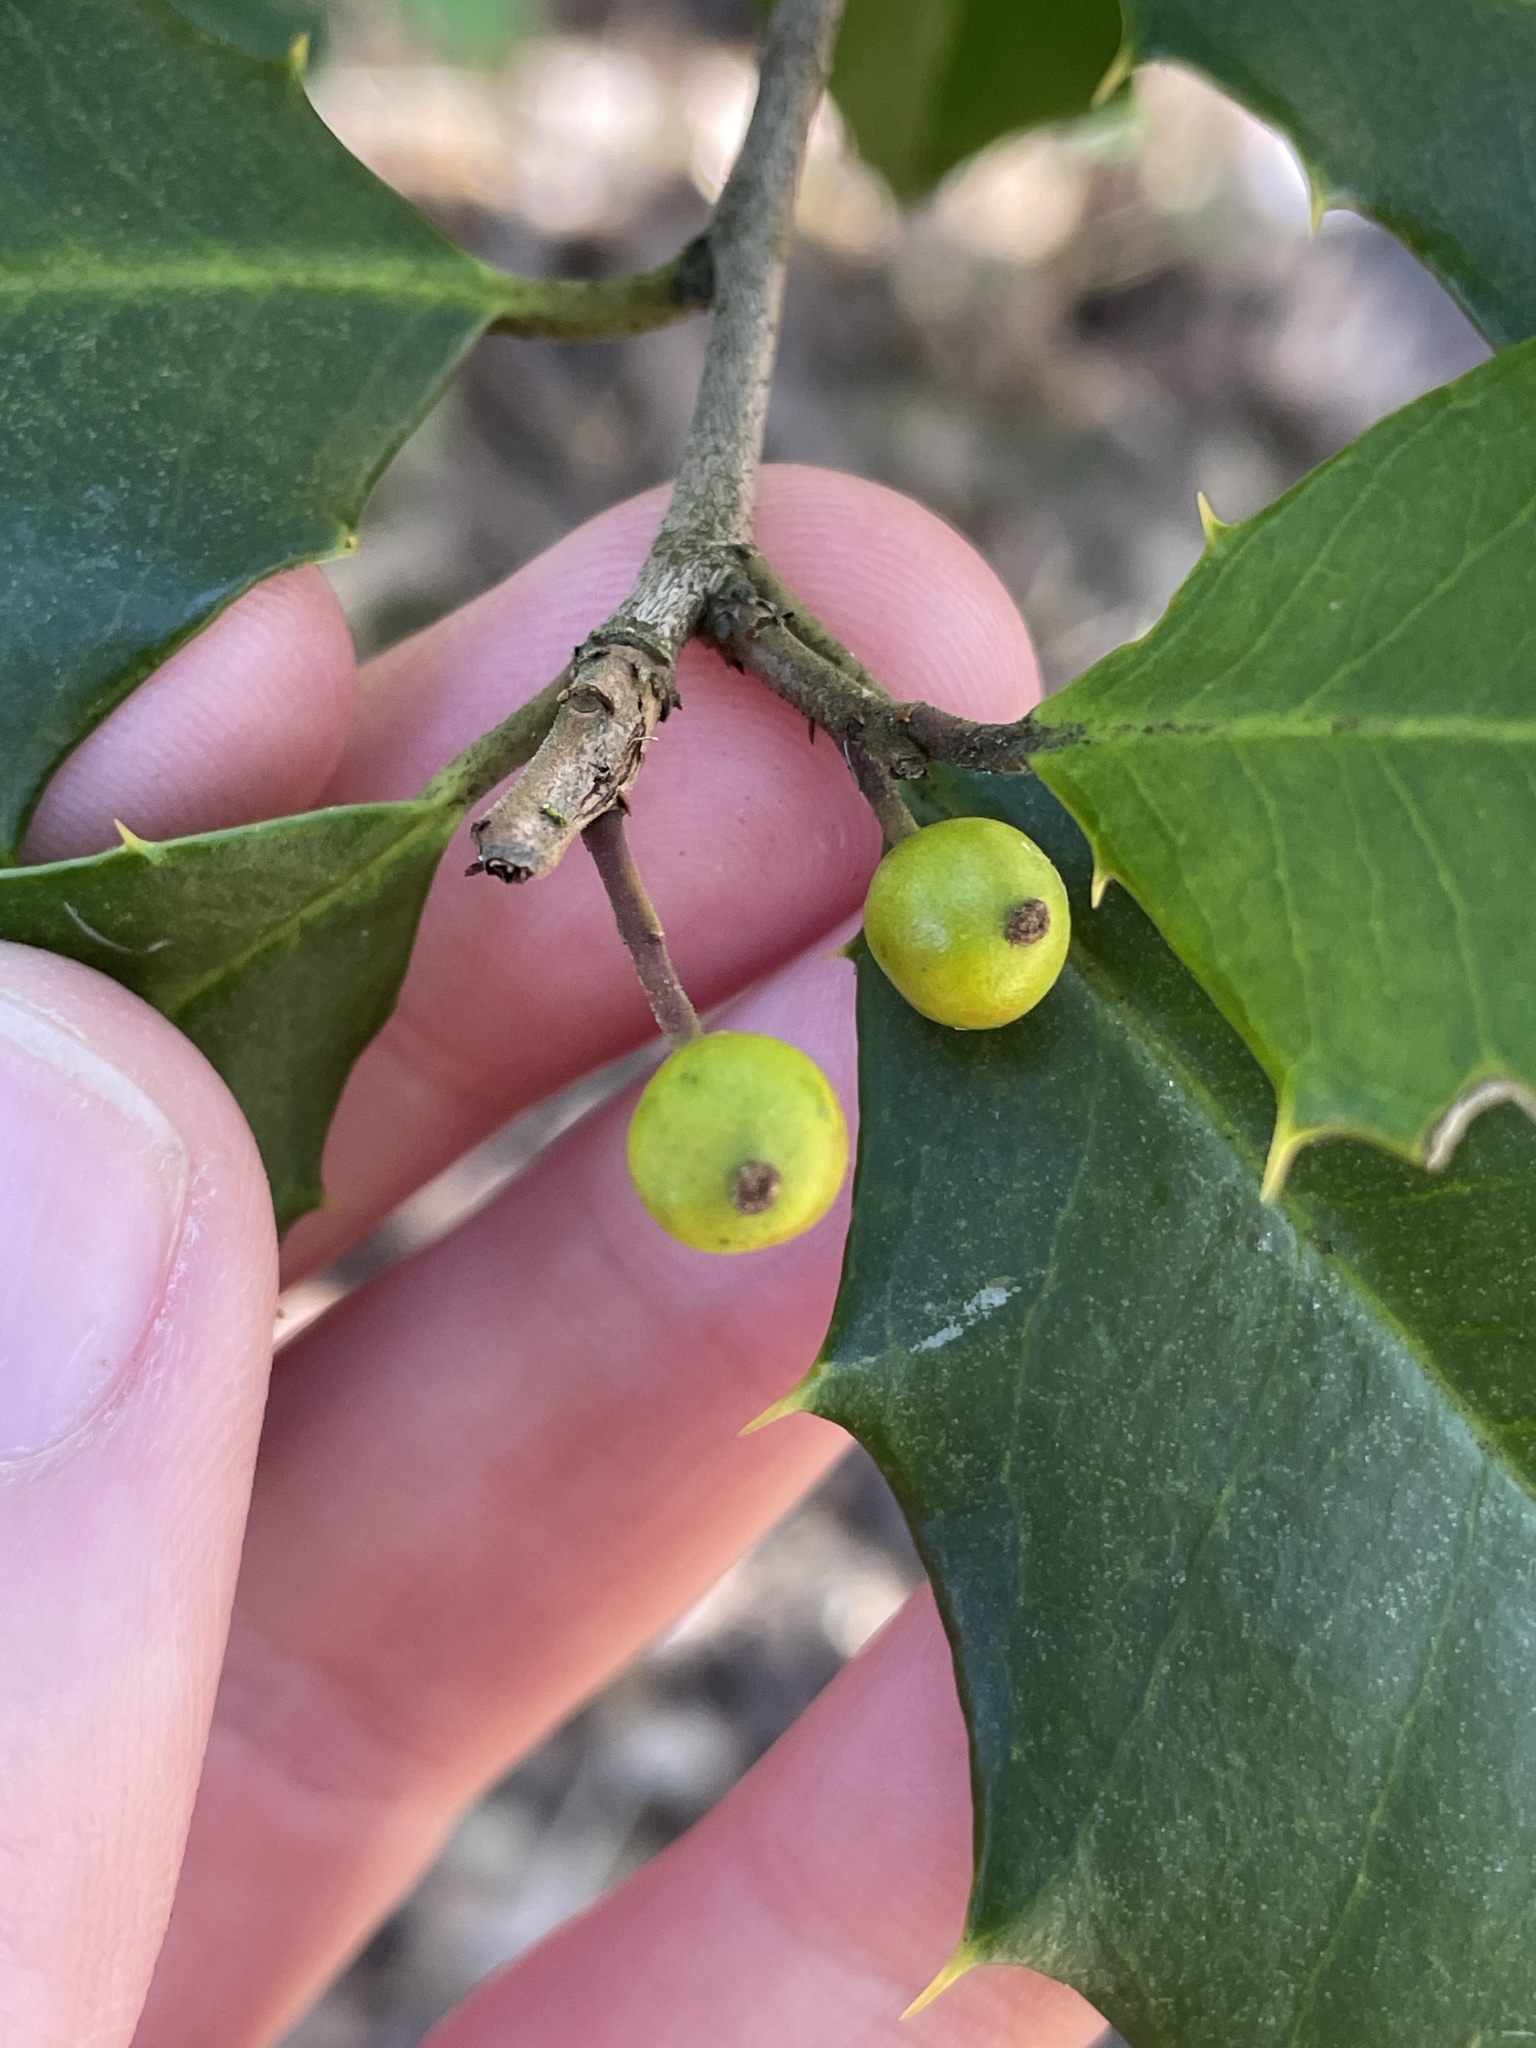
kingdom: Animalia
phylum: Arthropoda
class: Insecta
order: Diptera
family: Cecidomyiidae
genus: Asphondylia
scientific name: Asphondylia ilicicola
